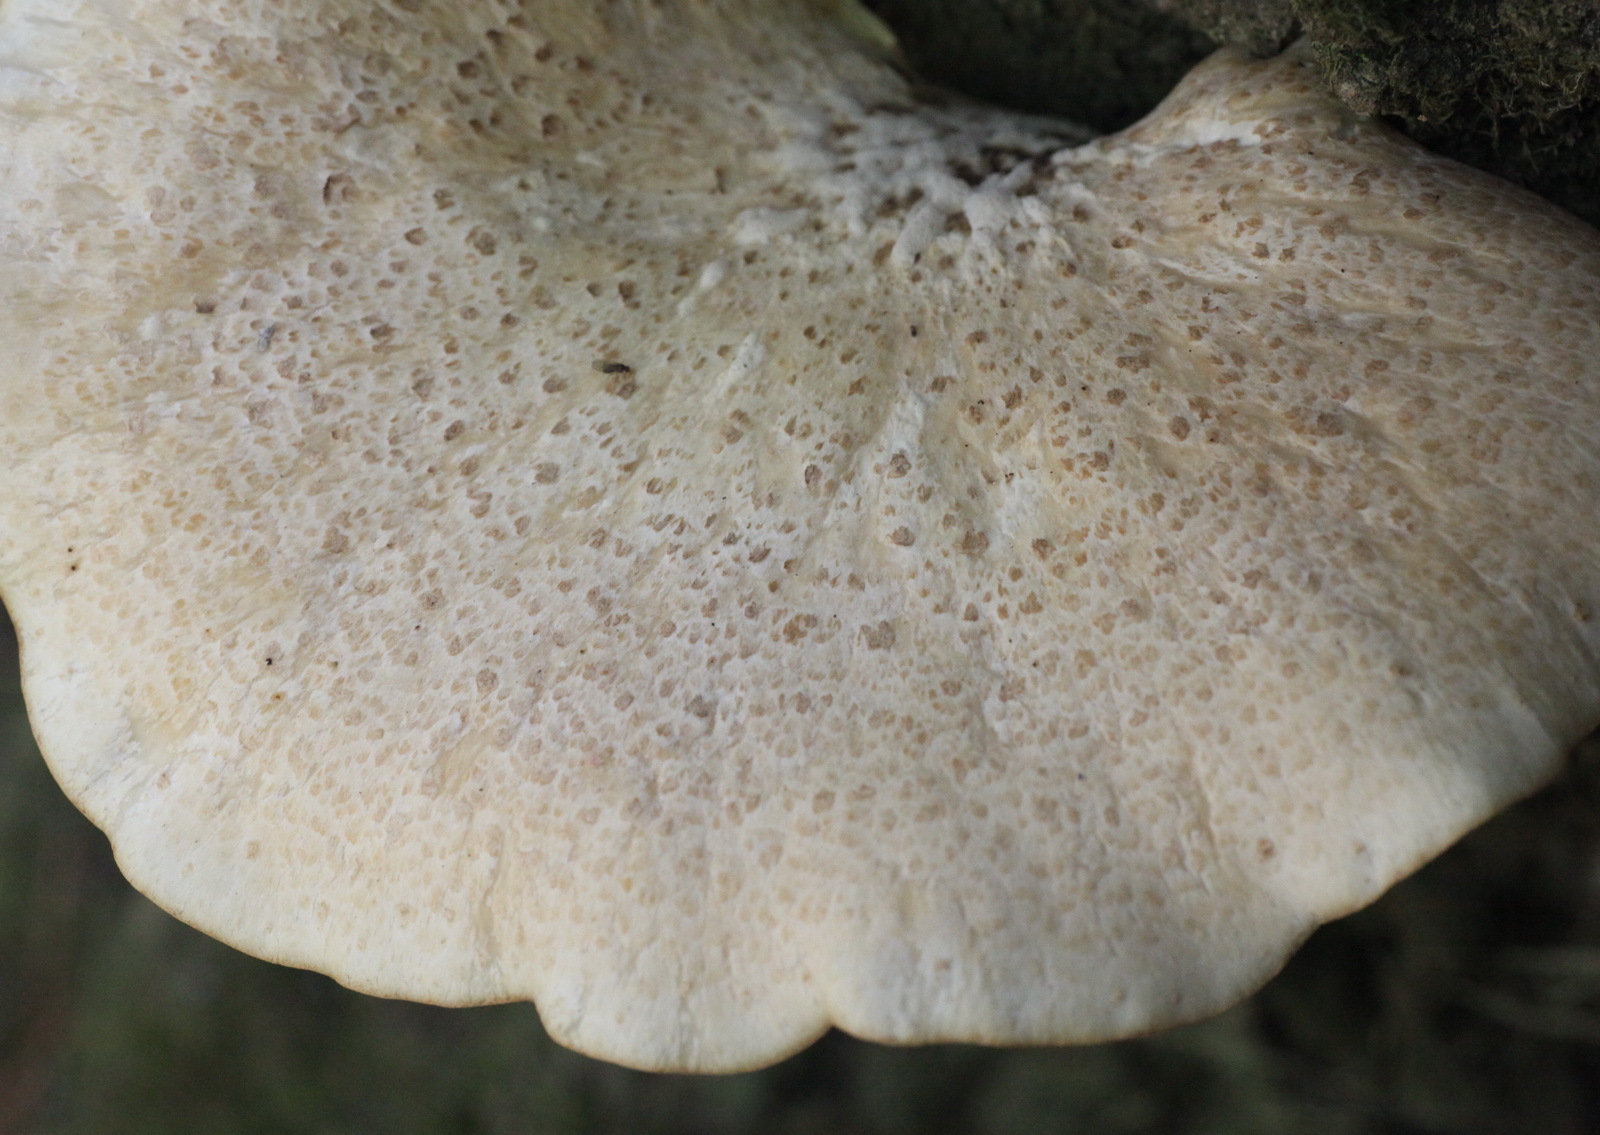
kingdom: Fungi
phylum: Basidiomycota
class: Agaricomycetes
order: Polyporales
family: Polyporaceae
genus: Cerioporus
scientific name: Cerioporus squamosus
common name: Dryad's saddle
